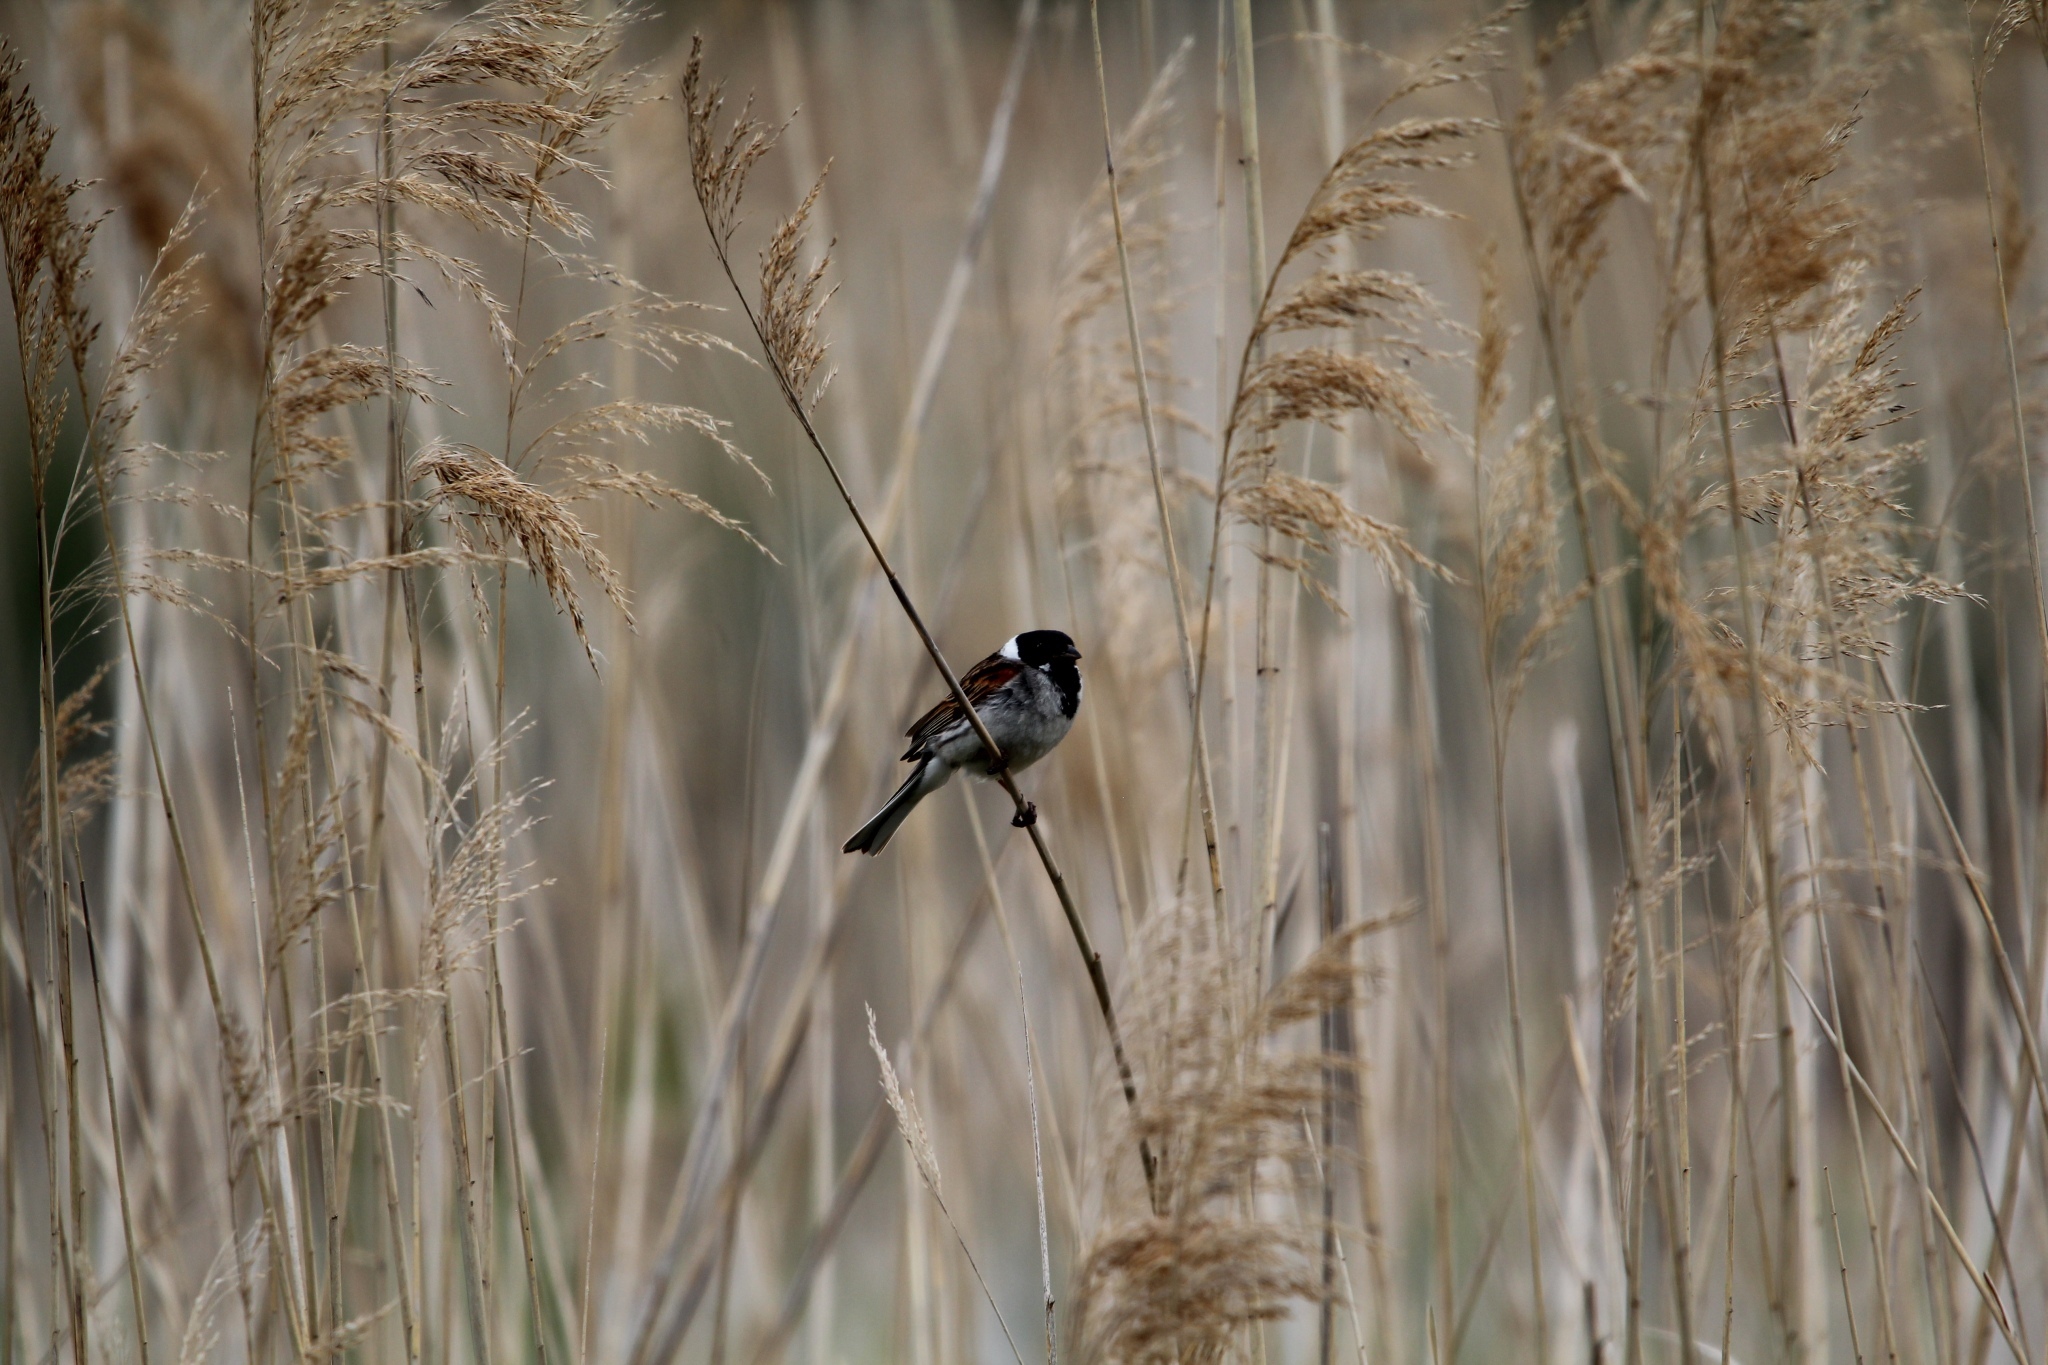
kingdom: Animalia
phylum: Chordata
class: Aves
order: Passeriformes
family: Emberizidae
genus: Emberiza
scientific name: Emberiza schoeniclus
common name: Reed bunting
